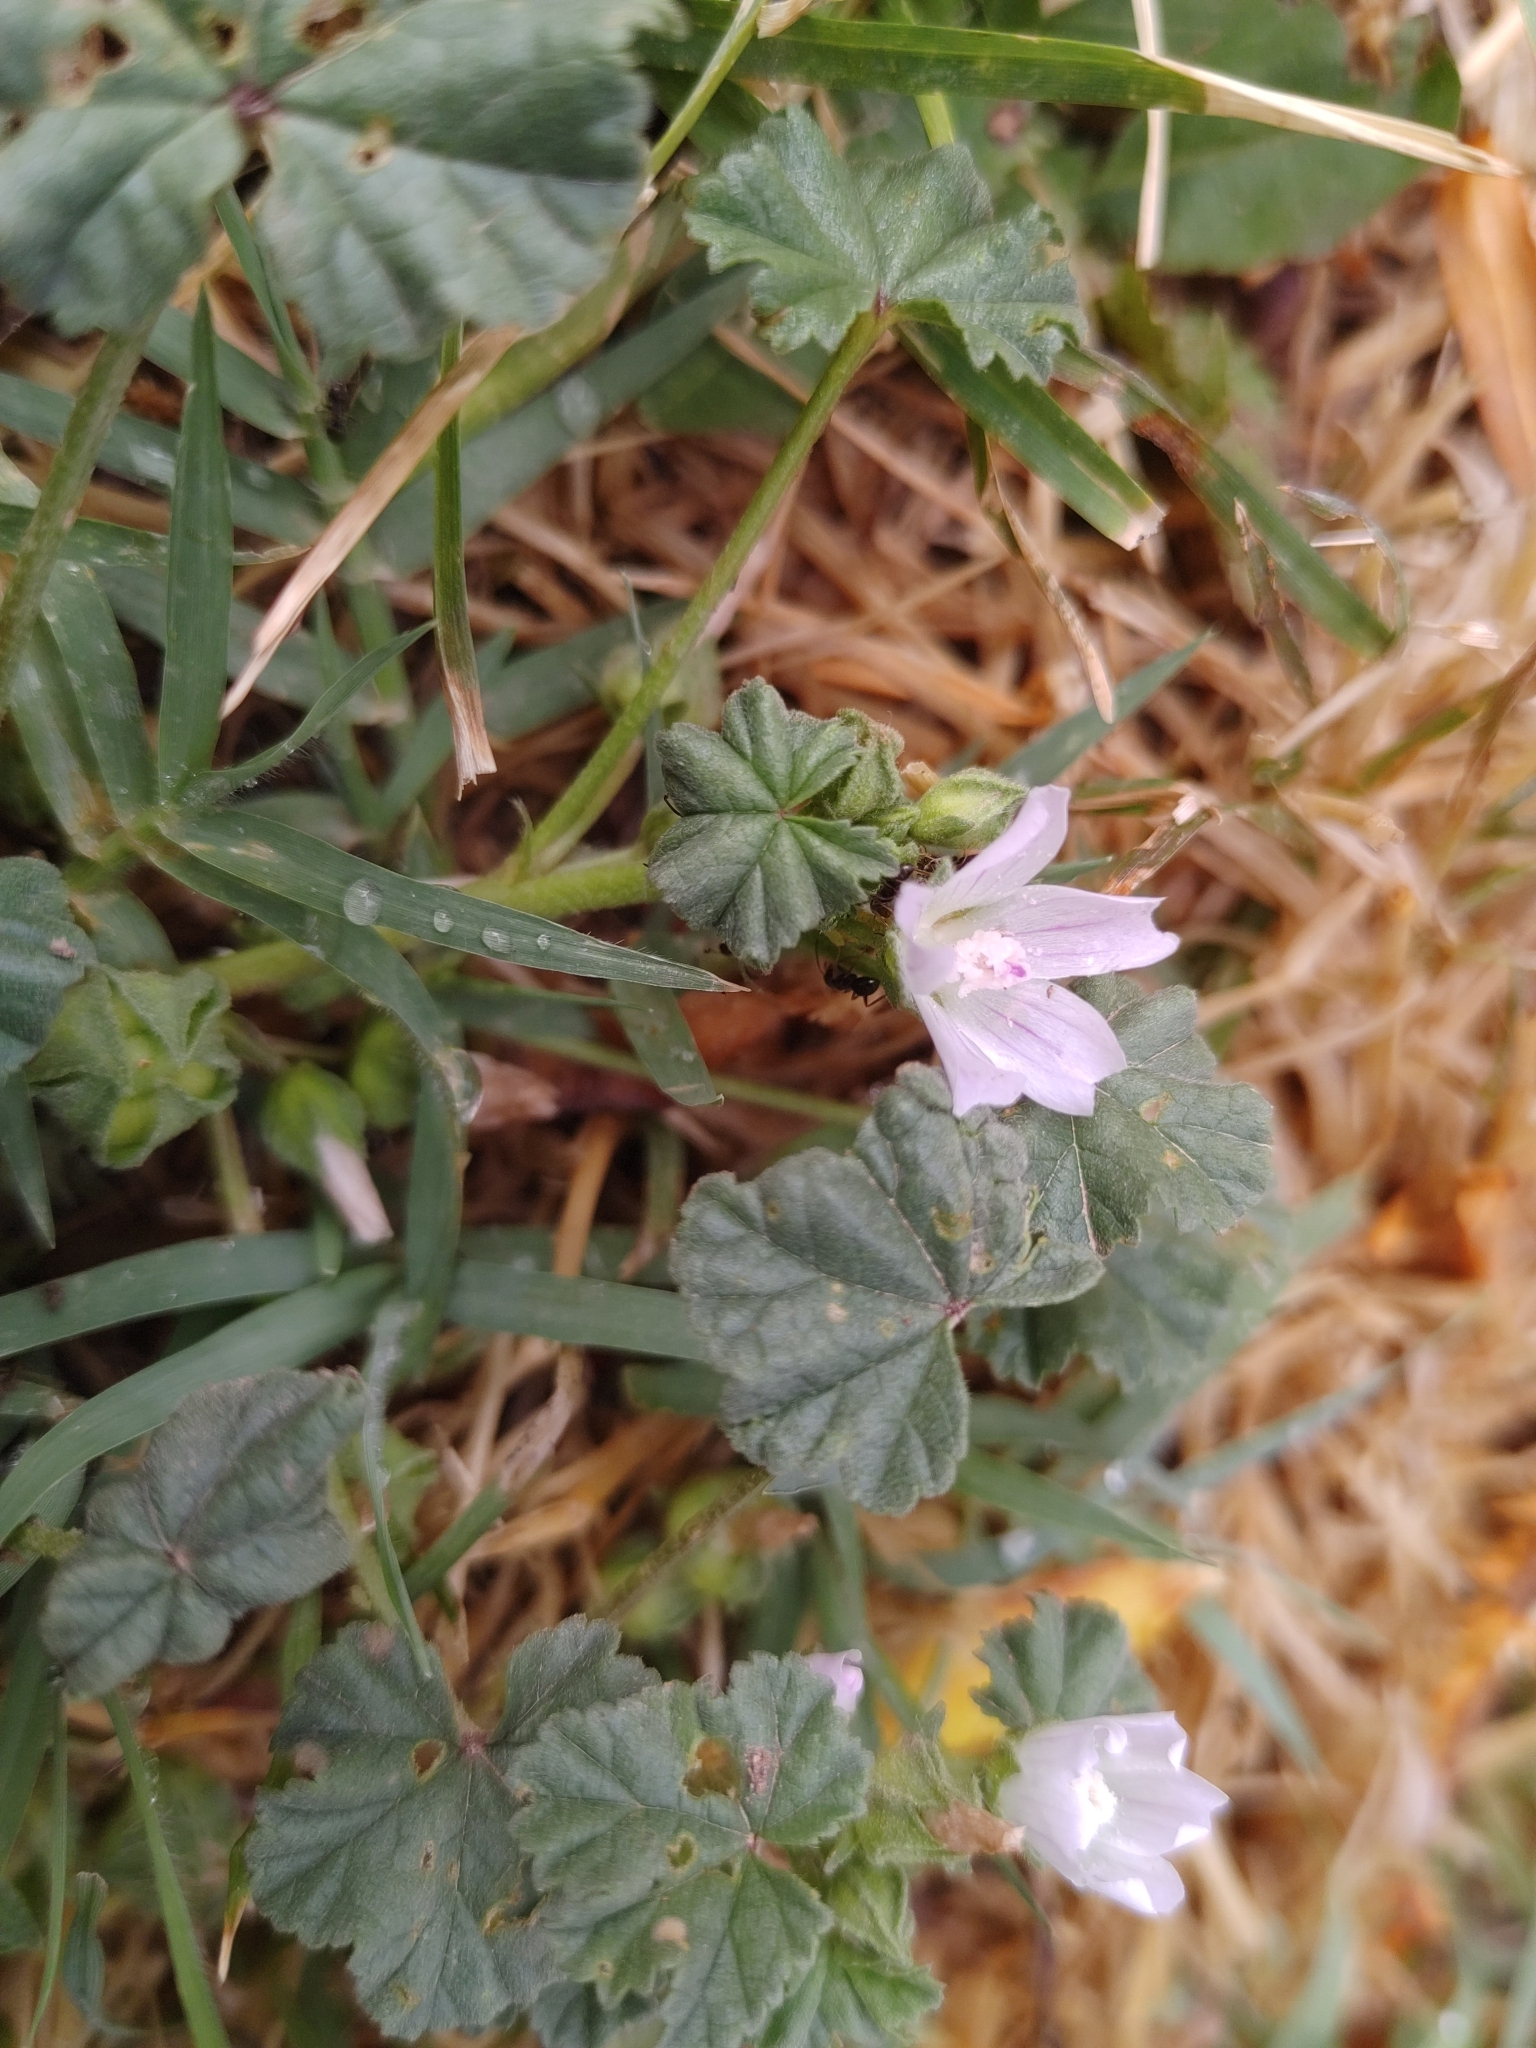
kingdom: Plantae
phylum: Tracheophyta
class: Magnoliopsida
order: Malvales
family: Malvaceae
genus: Malva
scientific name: Malva neglecta
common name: Common mallow
